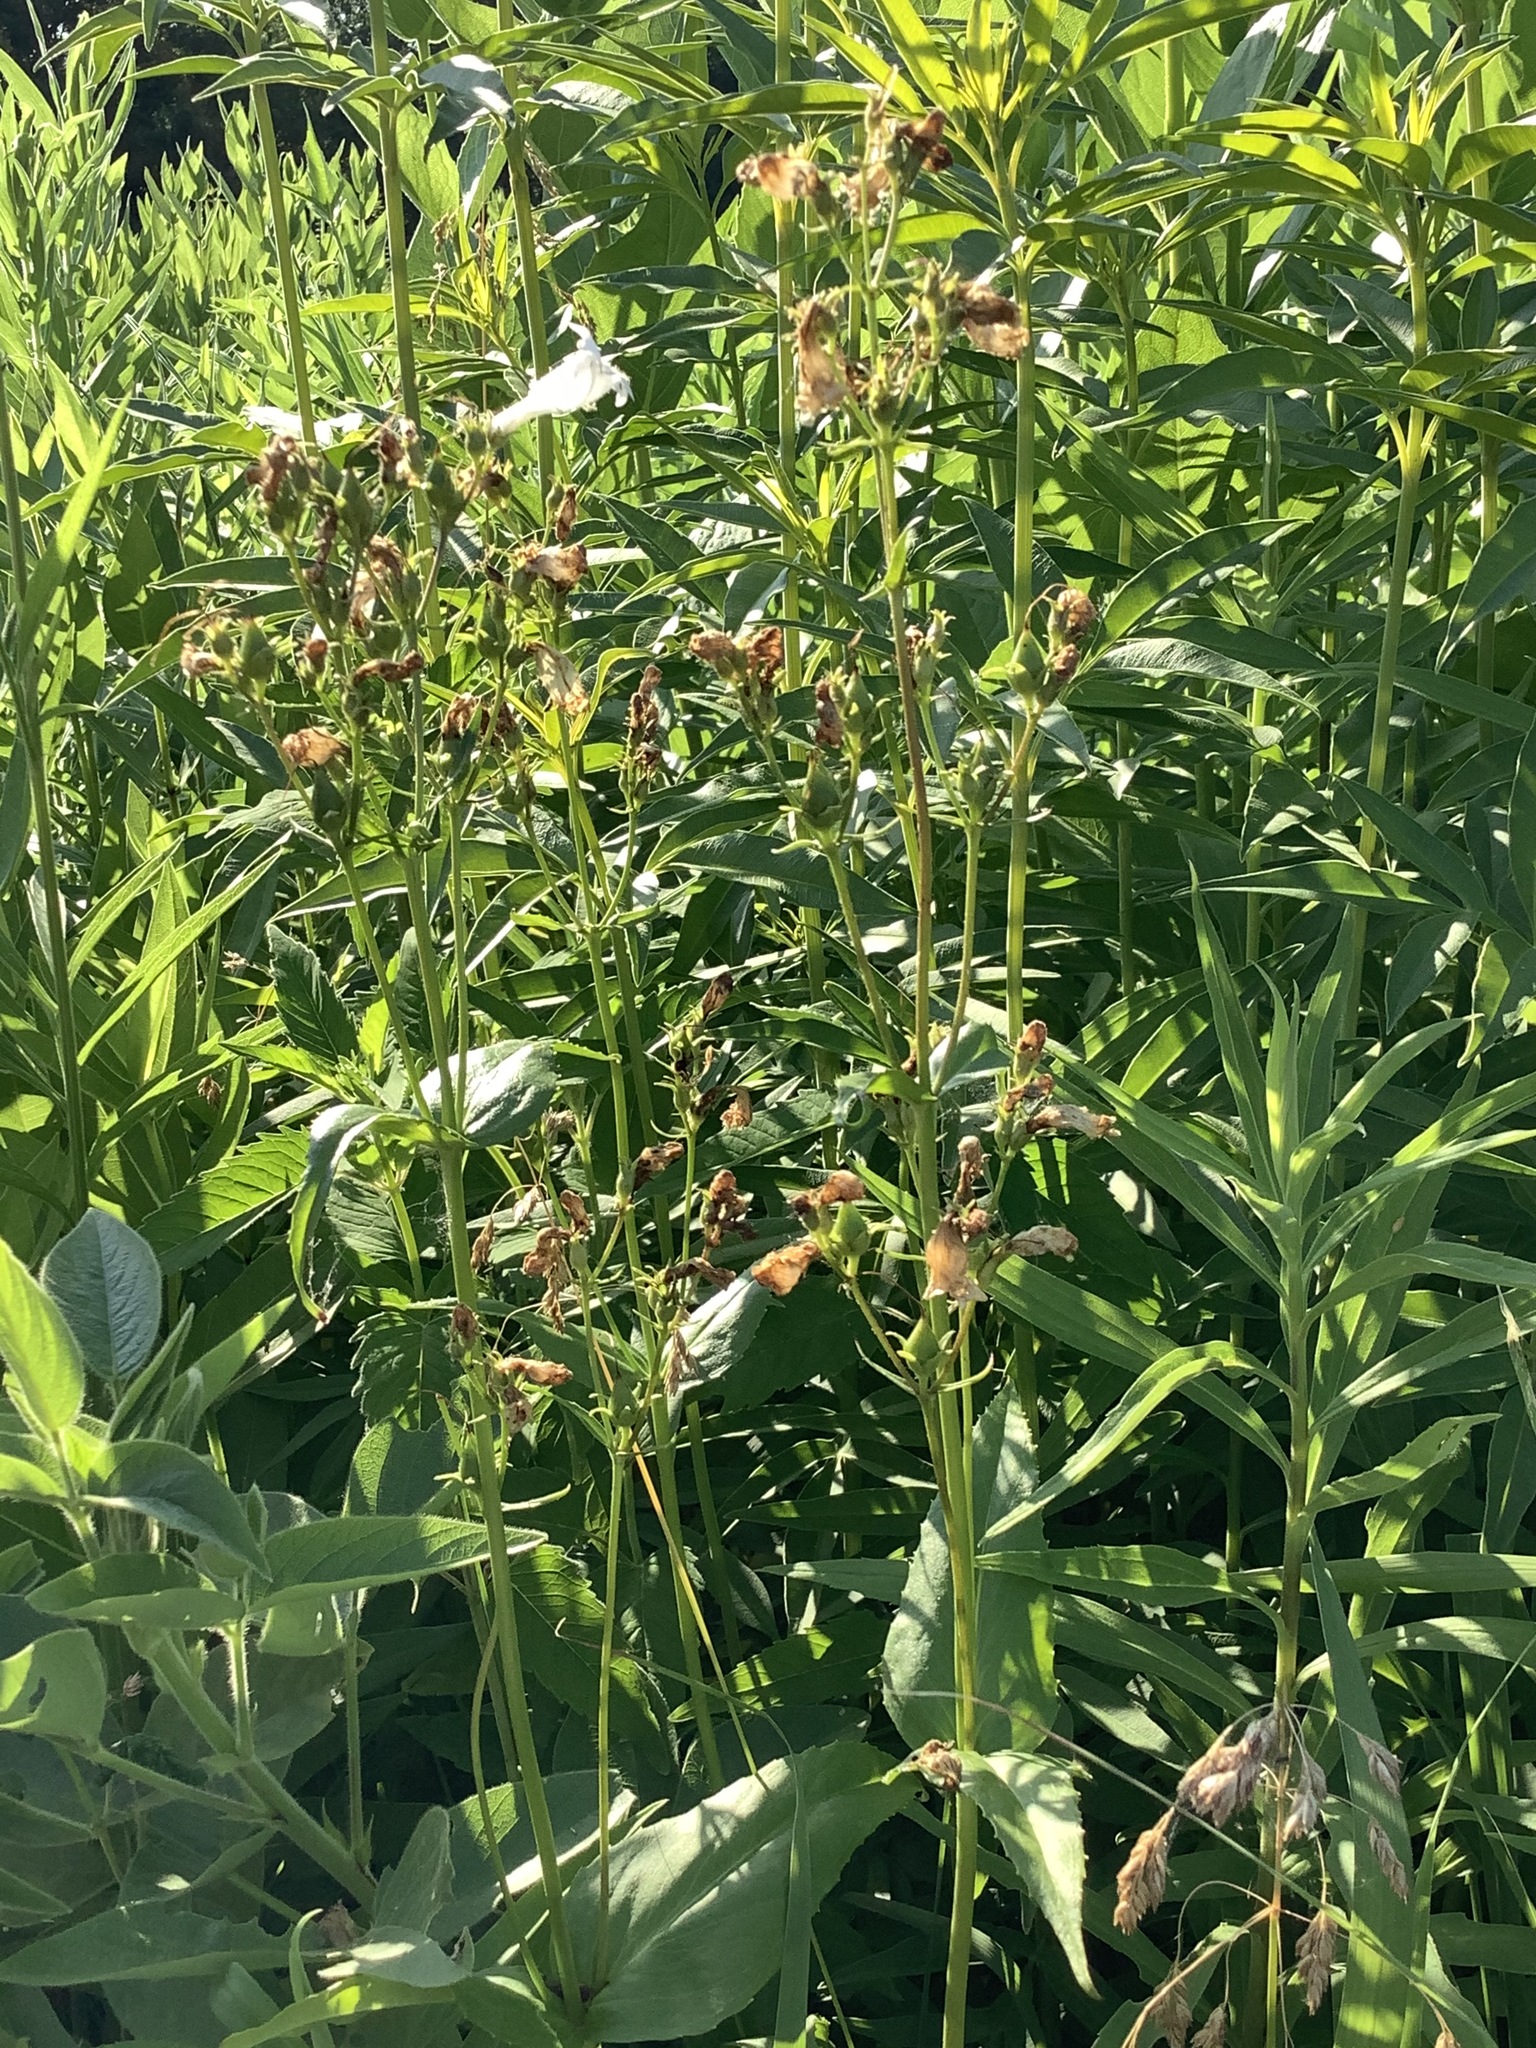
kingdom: Plantae
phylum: Tracheophyta
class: Magnoliopsida
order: Lamiales
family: Plantaginaceae
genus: Penstemon
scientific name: Penstemon digitalis
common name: Foxglove beardtongue
